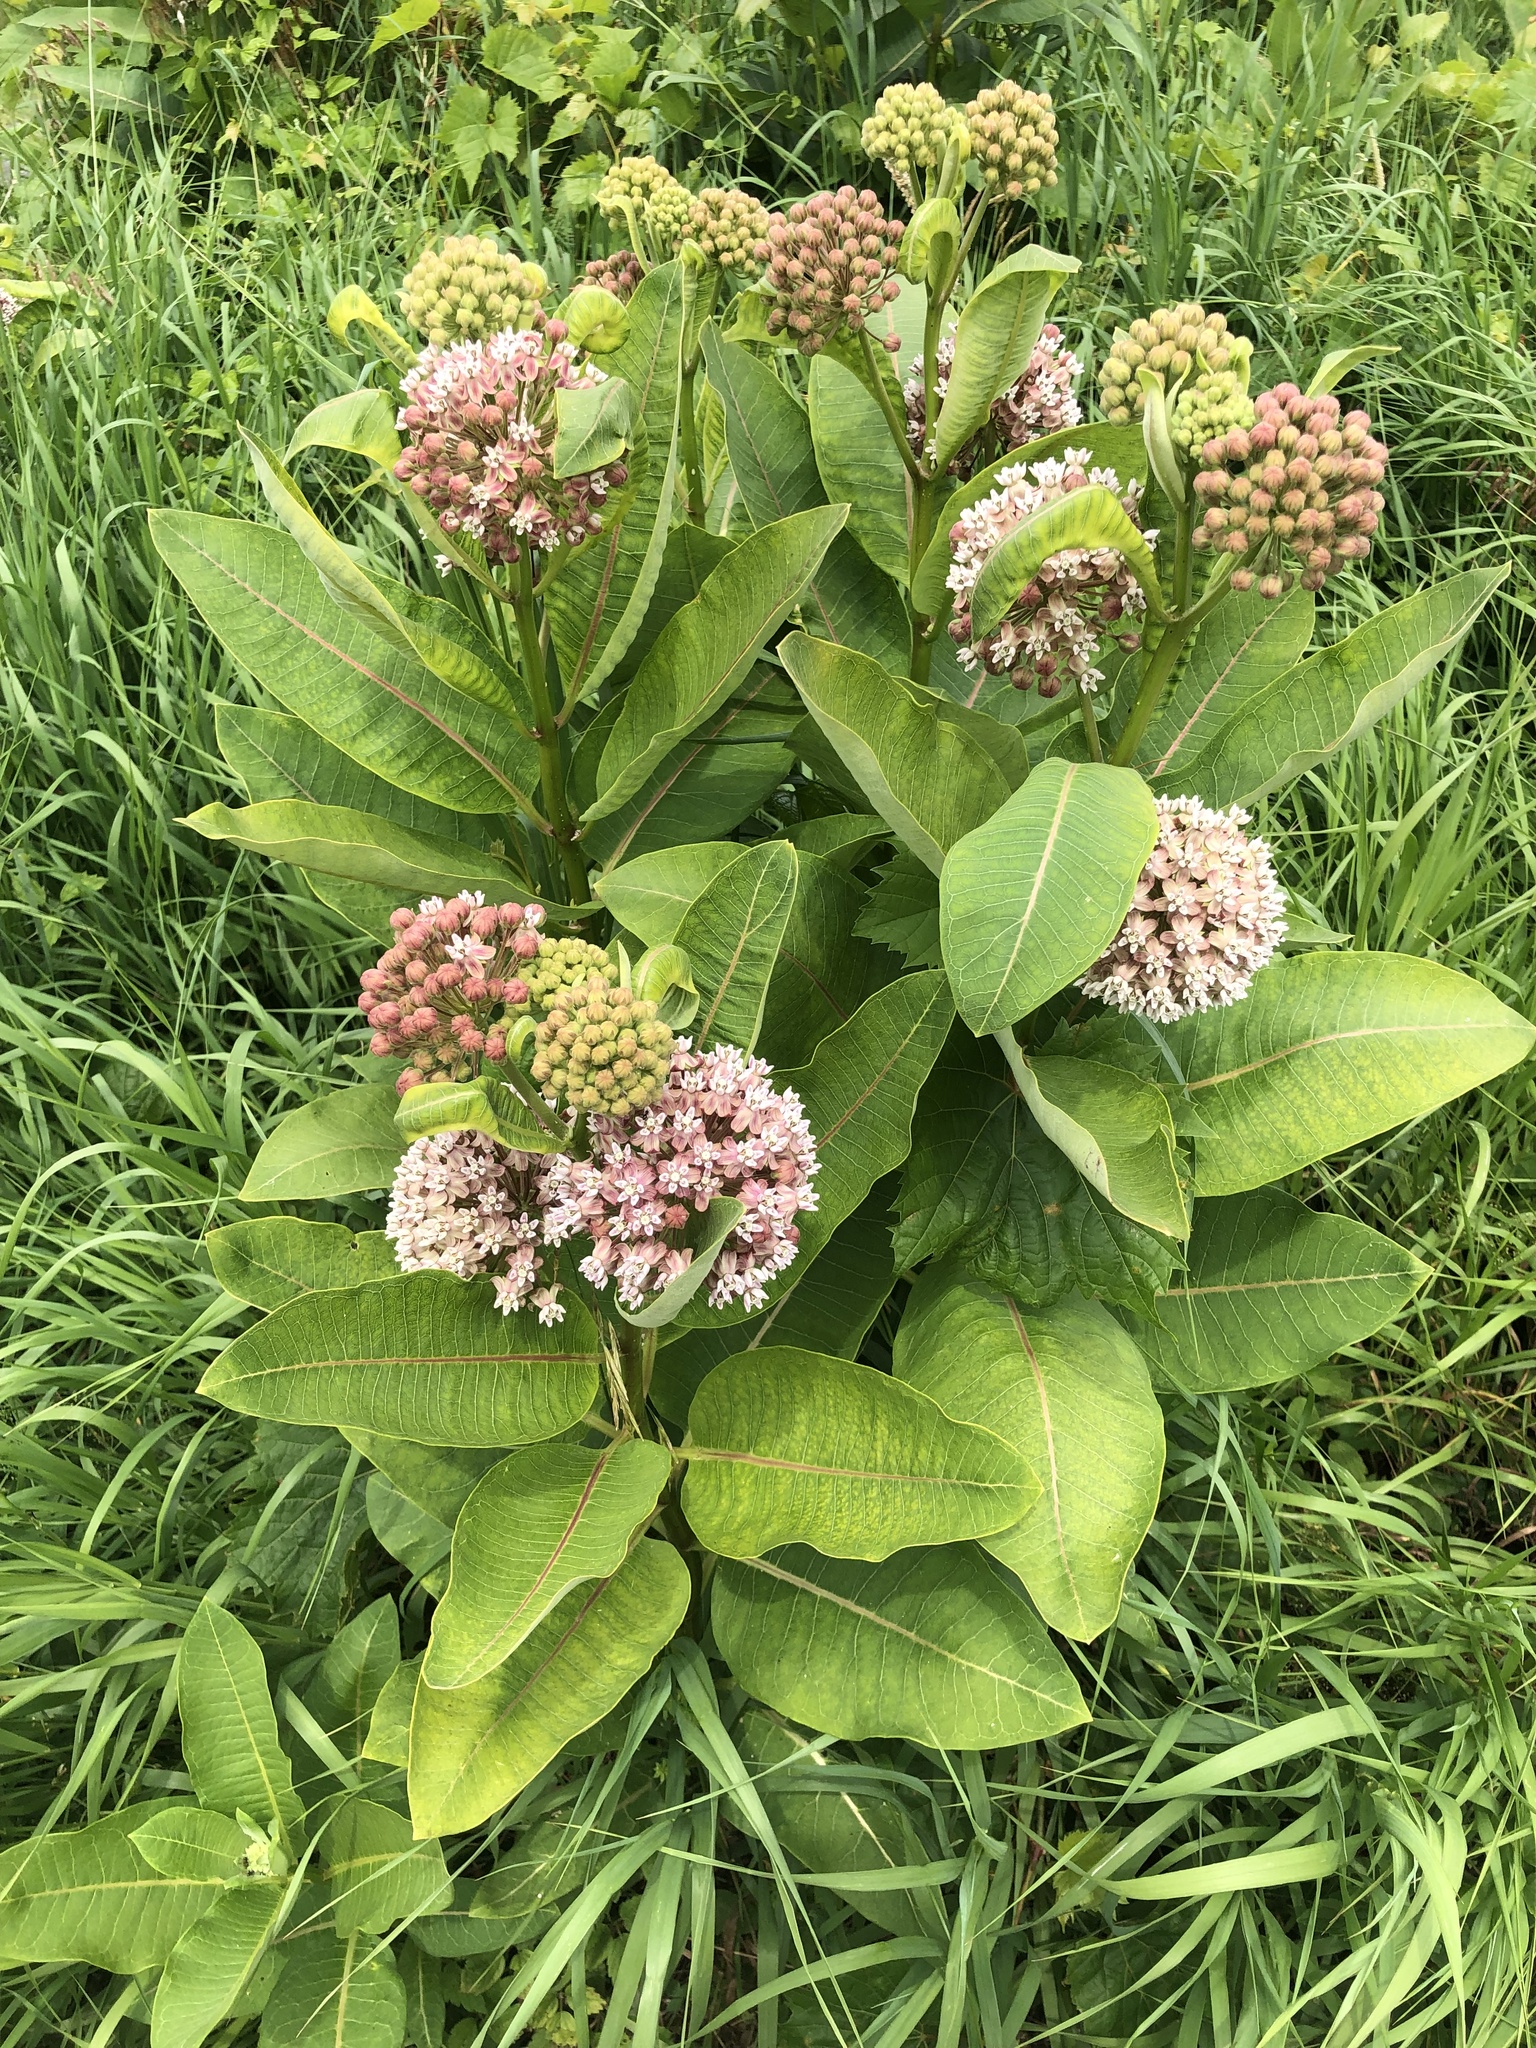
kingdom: Plantae
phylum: Tracheophyta
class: Magnoliopsida
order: Gentianales
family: Apocynaceae
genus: Asclepias
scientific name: Asclepias syriaca
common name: Common milkweed
